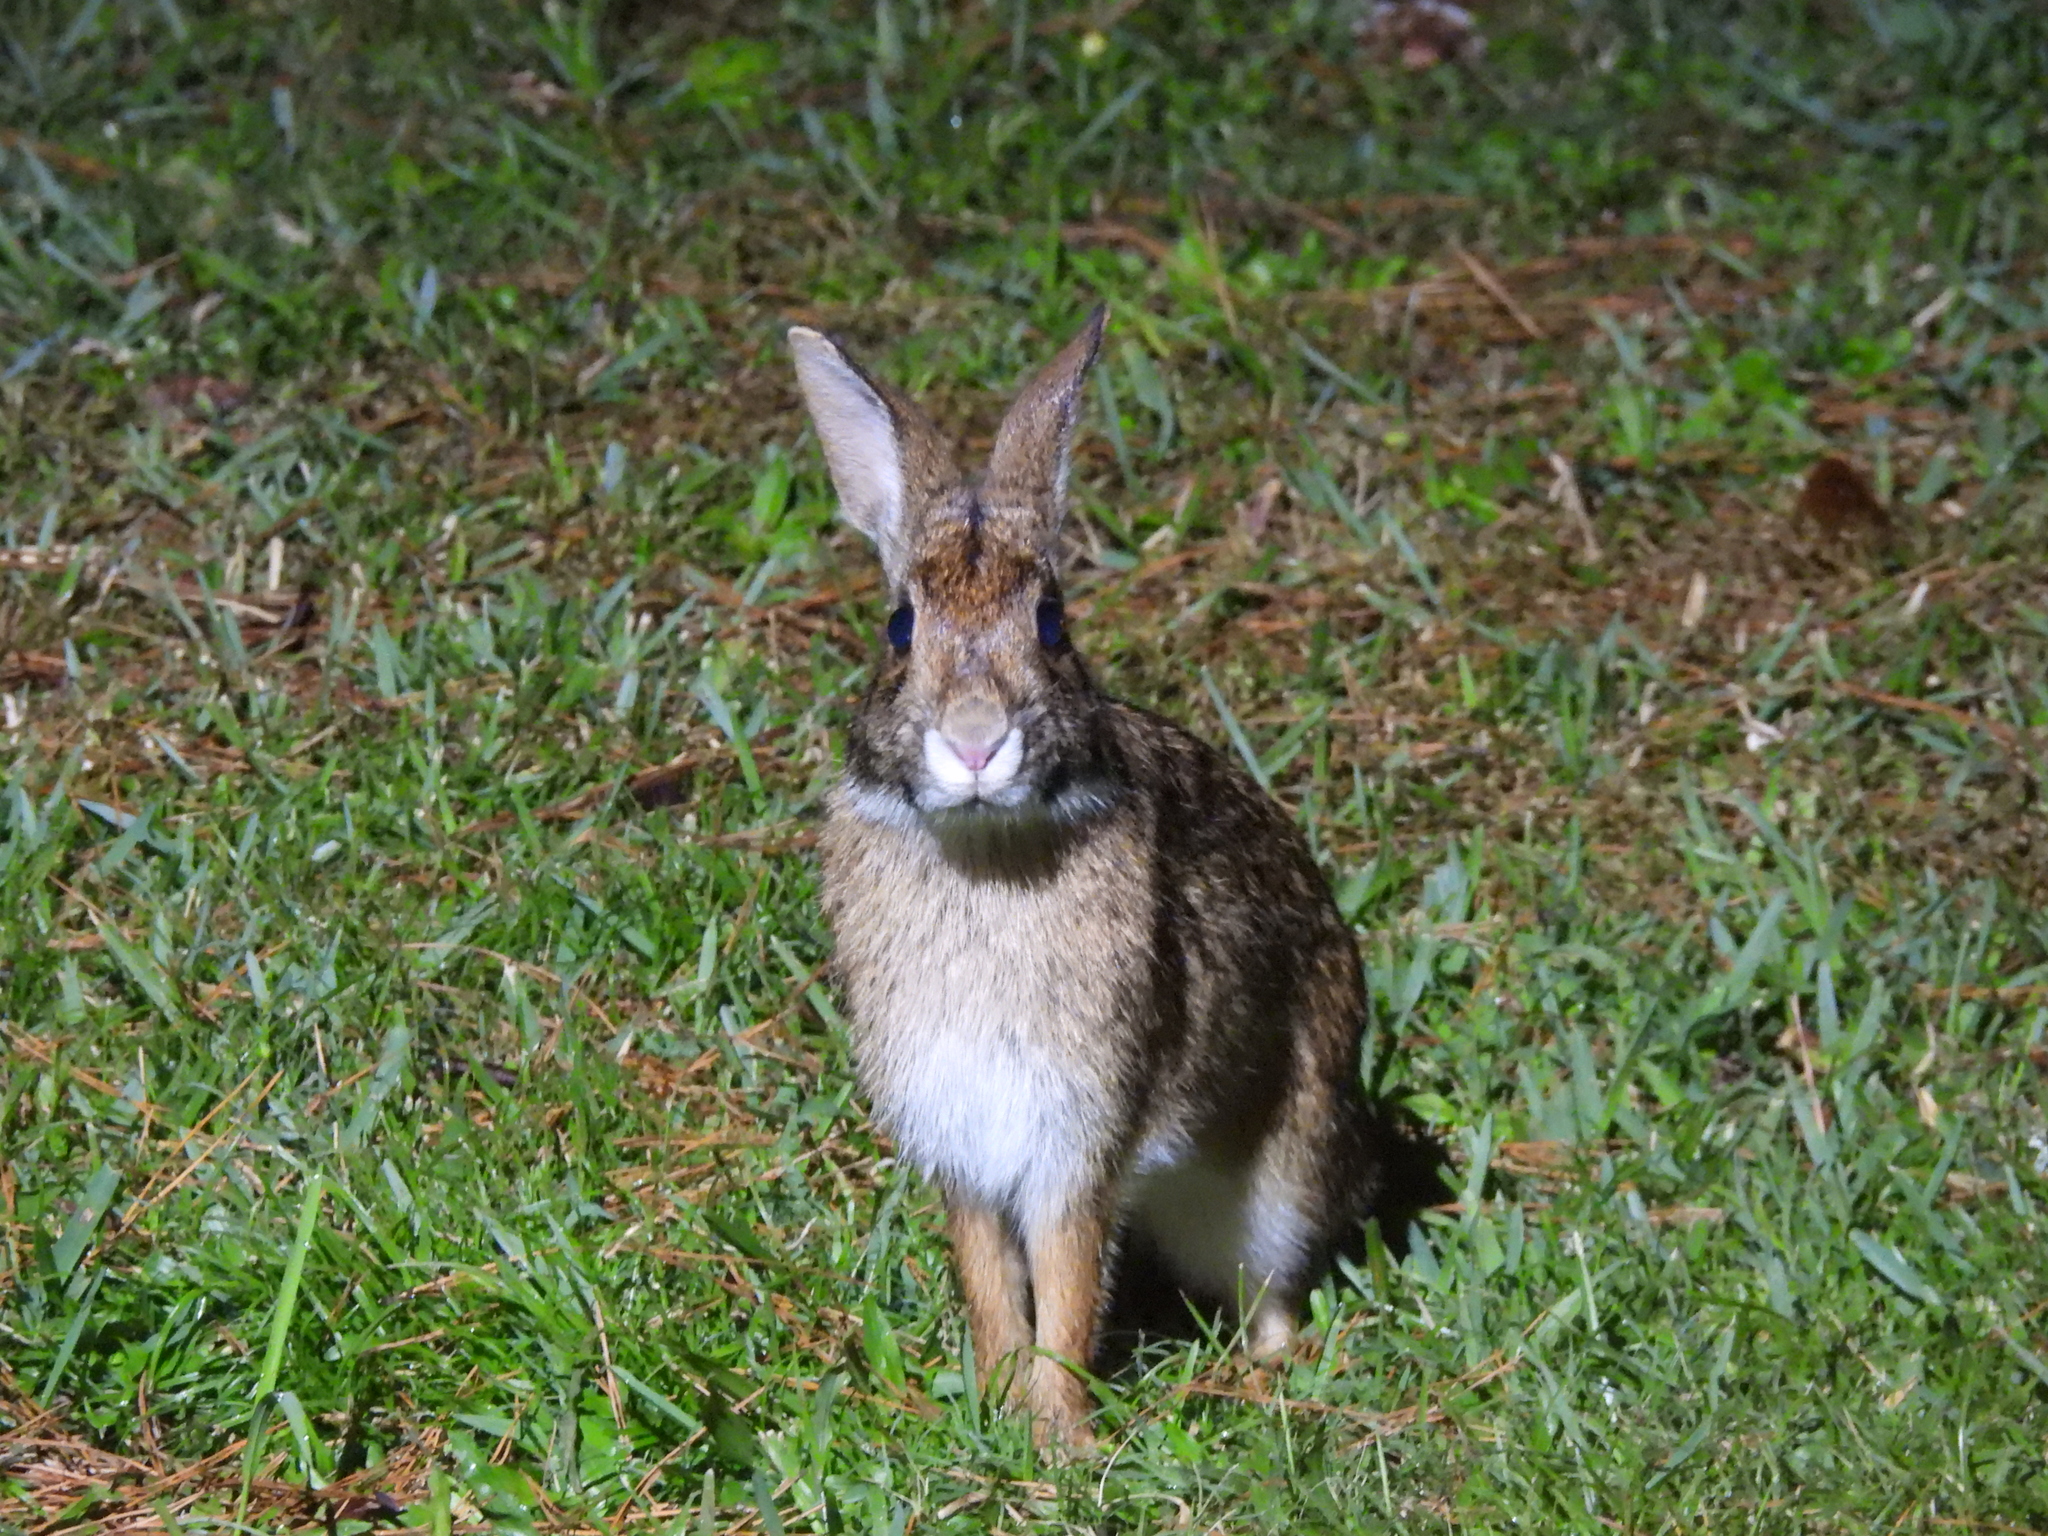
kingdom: Animalia
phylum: Chordata
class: Mammalia
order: Lagomorpha
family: Leporidae
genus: Sylvilagus
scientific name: Sylvilagus aquaticus
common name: Swamp rabbit
